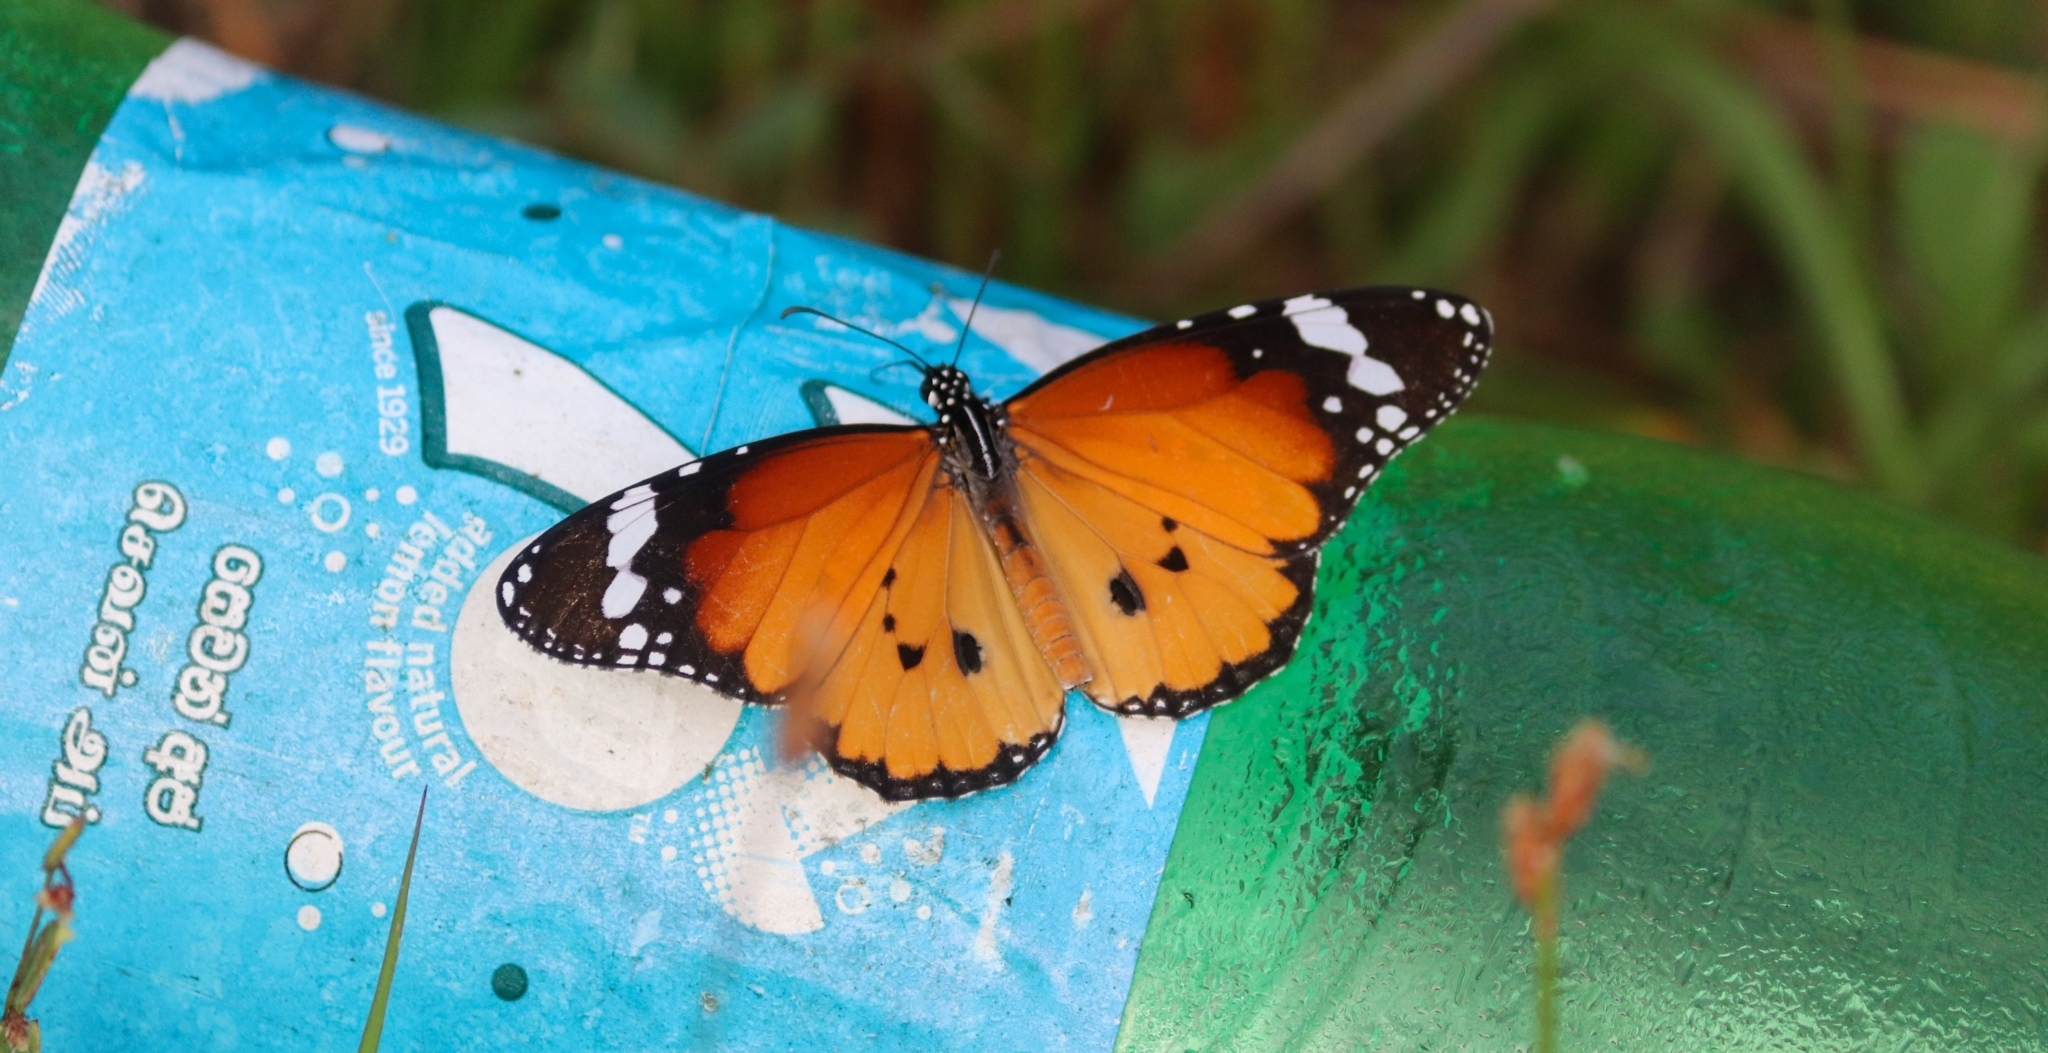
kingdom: Animalia
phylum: Arthropoda
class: Insecta
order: Lepidoptera
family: Nymphalidae
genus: Danaus
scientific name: Danaus chrysippus
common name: Plain tiger
